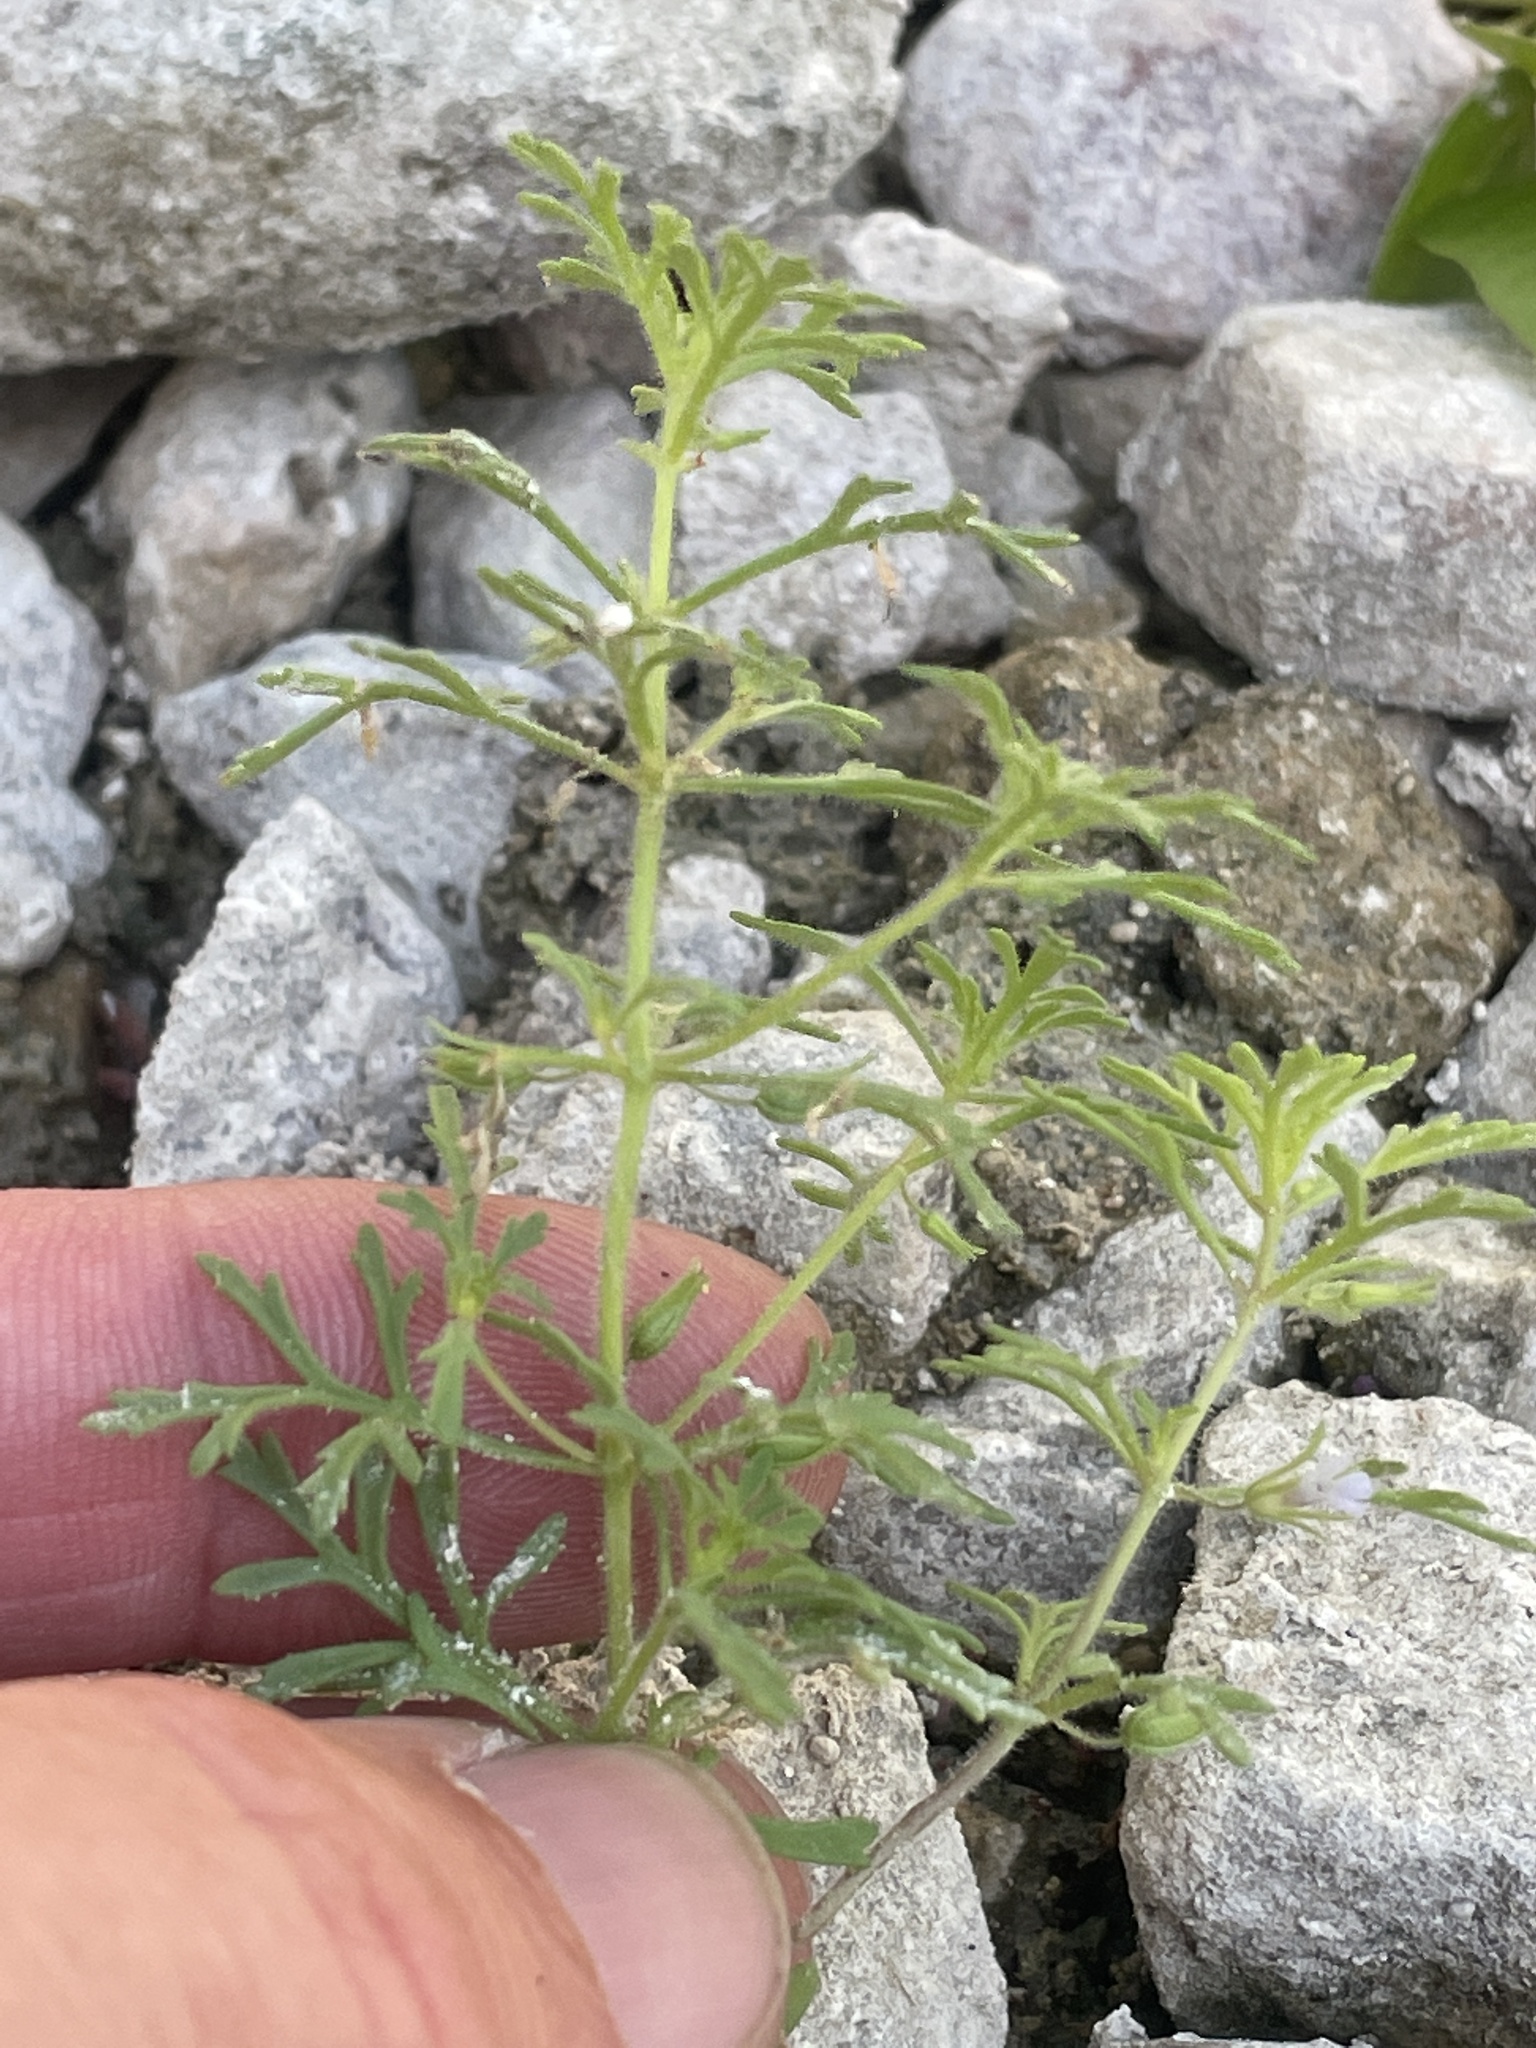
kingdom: Plantae
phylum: Tracheophyta
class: Magnoliopsida
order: Lamiales
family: Plantaginaceae
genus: Leucospora
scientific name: Leucospora multifida
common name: Narrow-leaf paleseed
